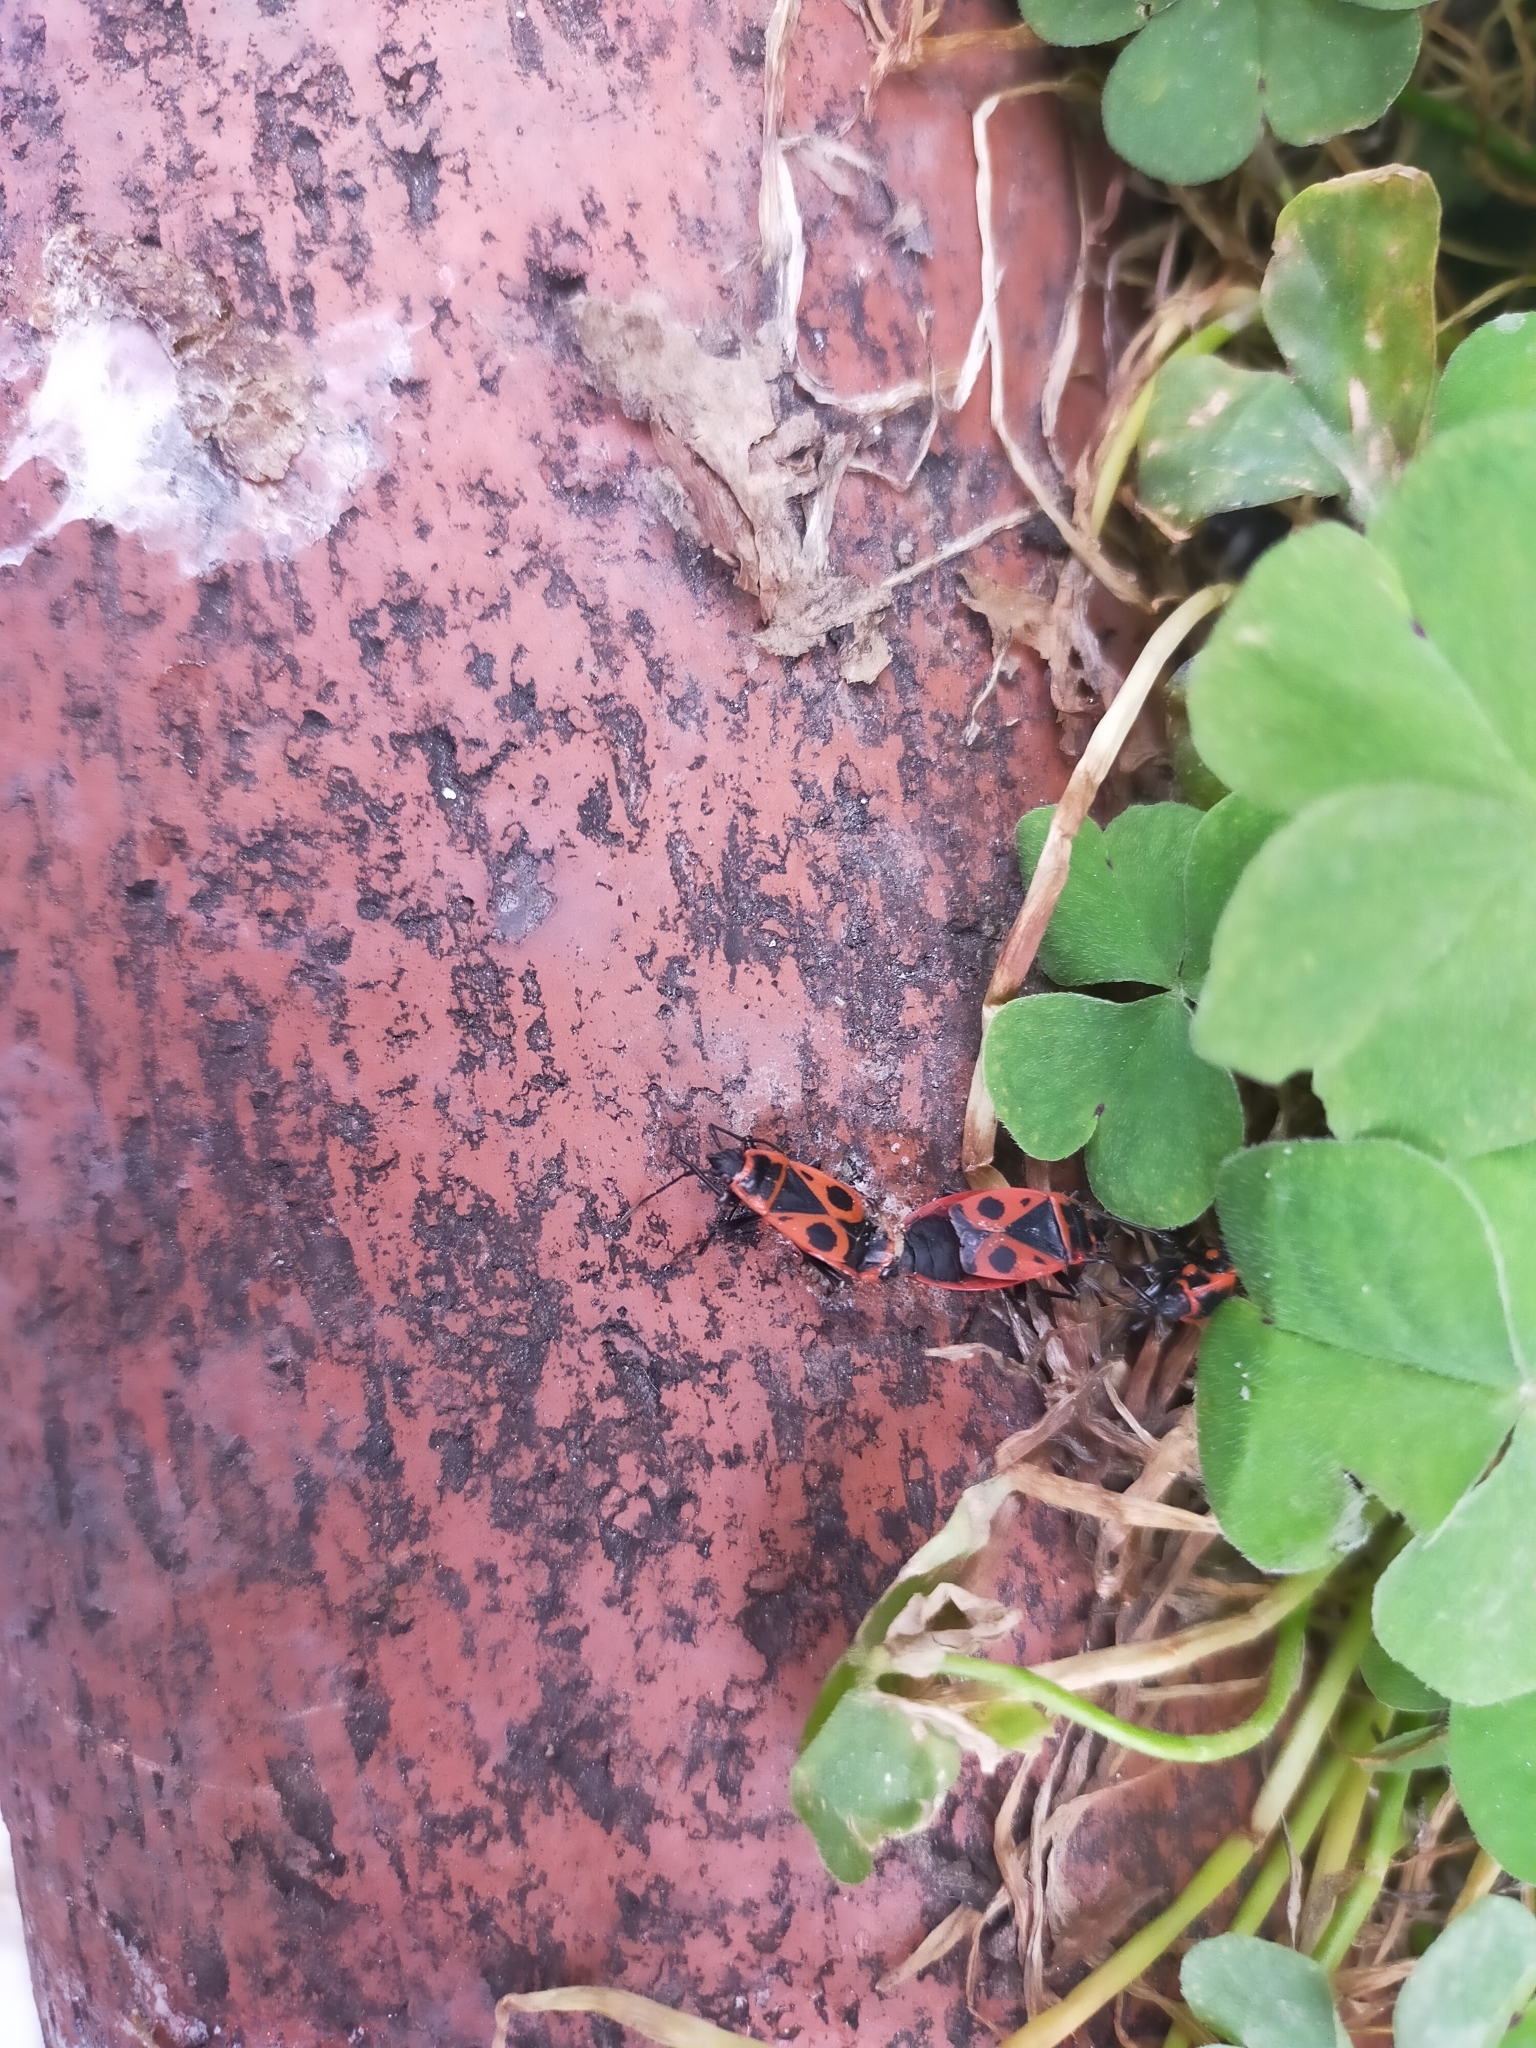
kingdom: Animalia
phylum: Arthropoda
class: Insecta
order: Hemiptera
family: Pyrrhocoridae
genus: Pyrrhocoris
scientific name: Pyrrhocoris apterus
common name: Firebug
